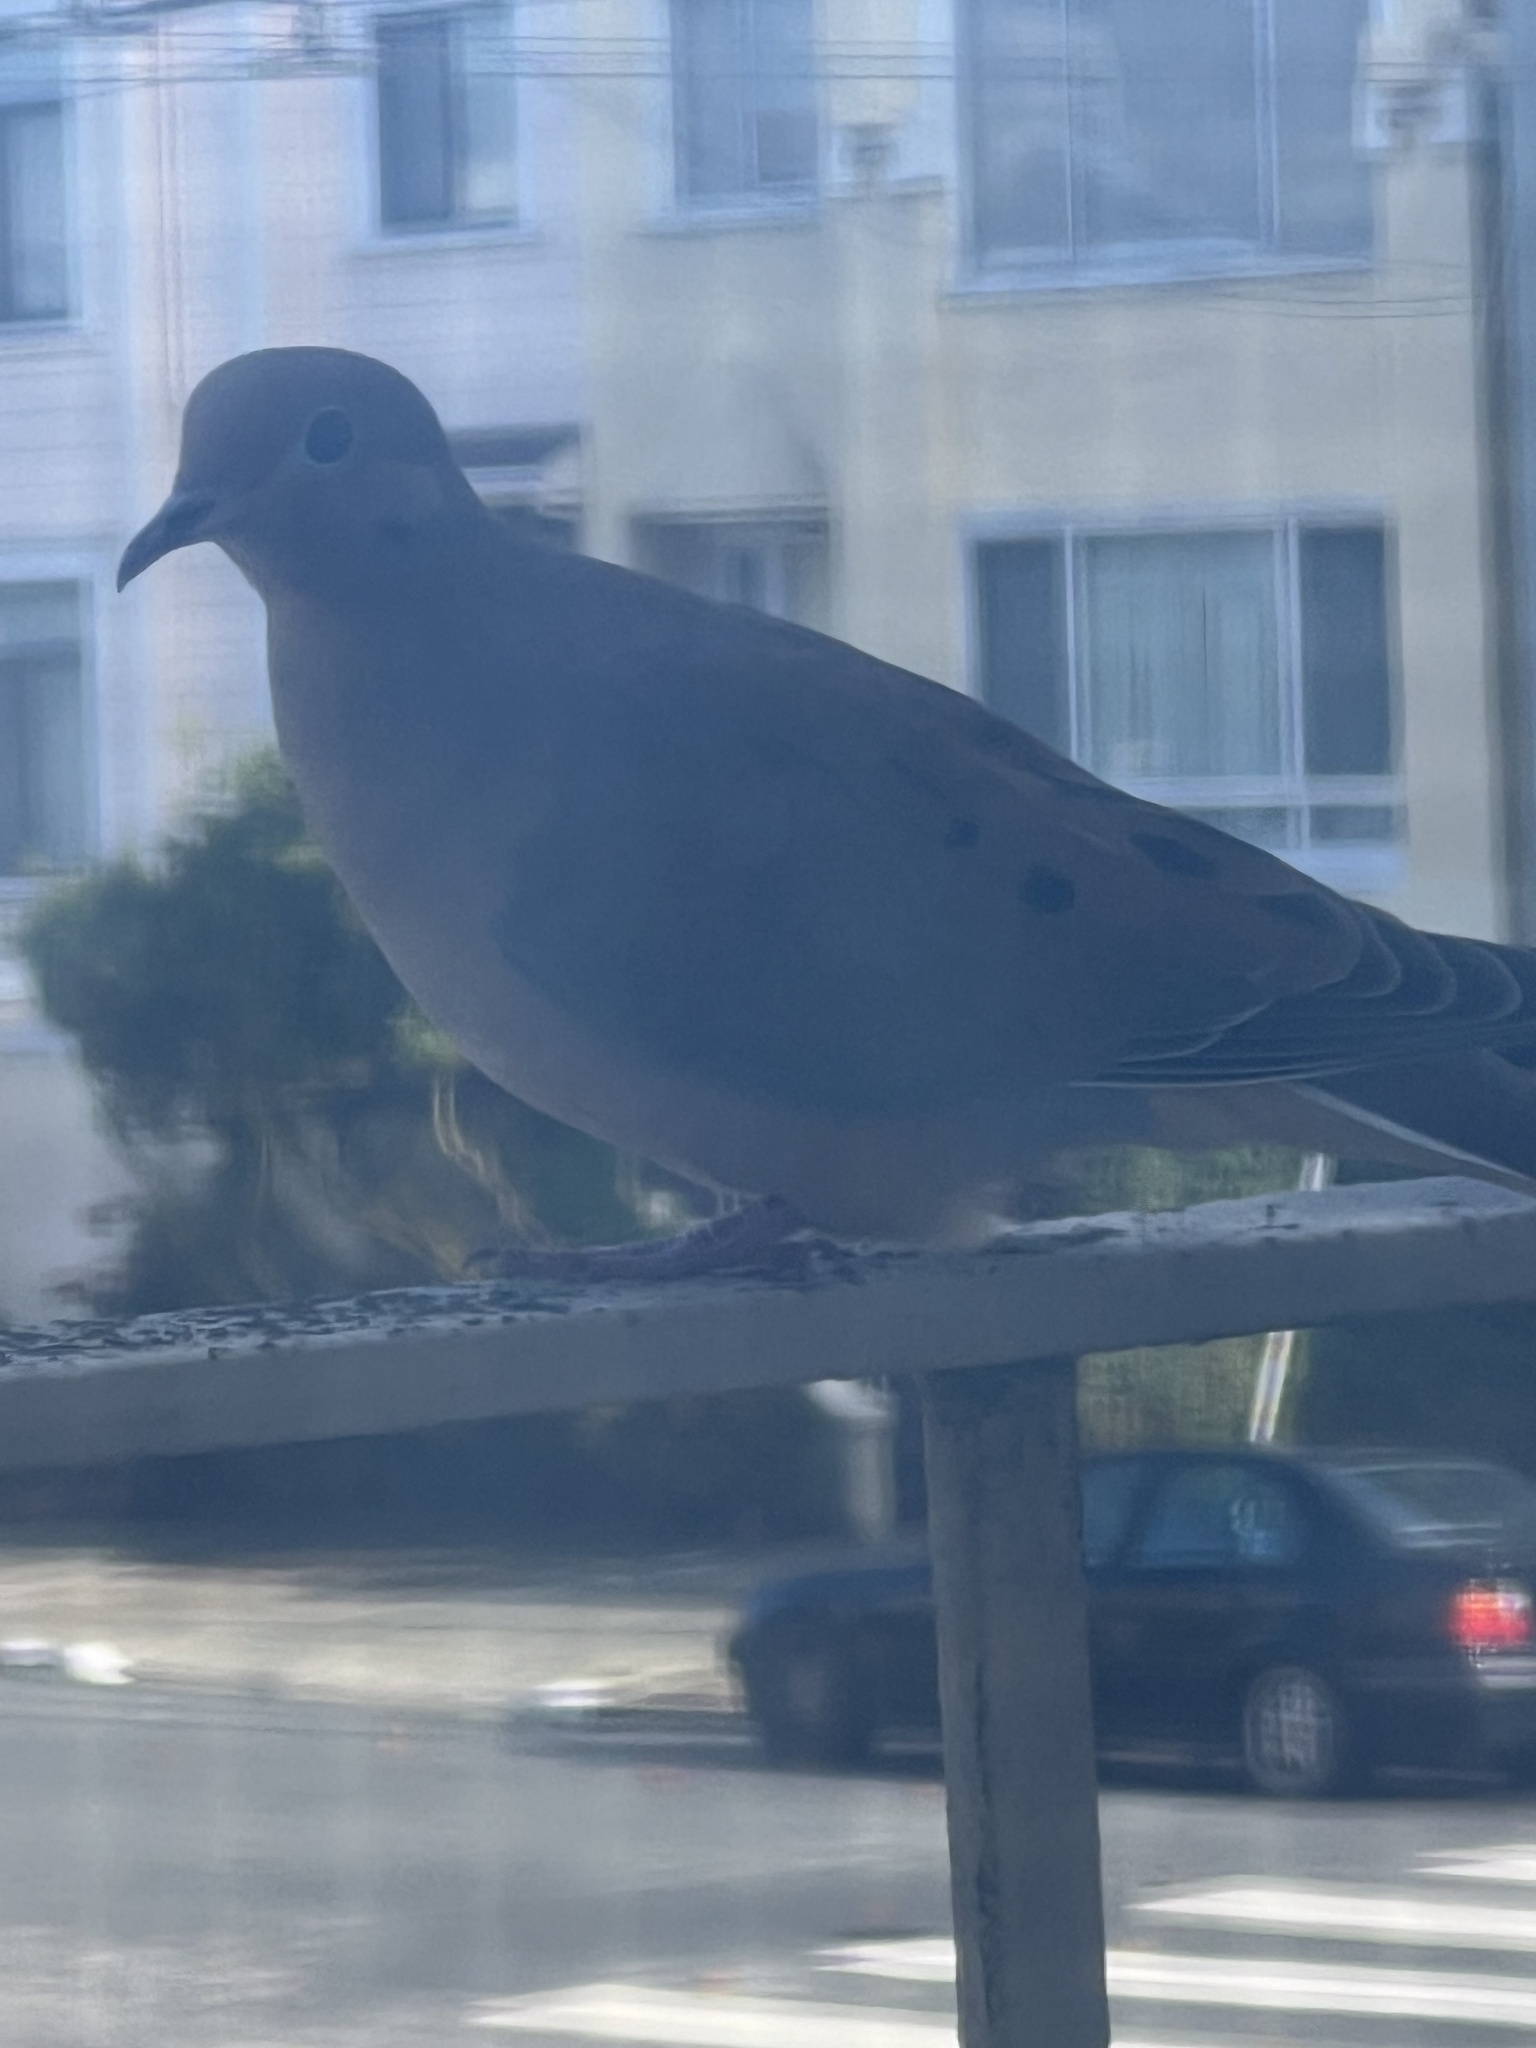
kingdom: Animalia
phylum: Chordata
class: Aves
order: Columbiformes
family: Columbidae
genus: Zenaida
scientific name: Zenaida macroura
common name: Mourning dove
